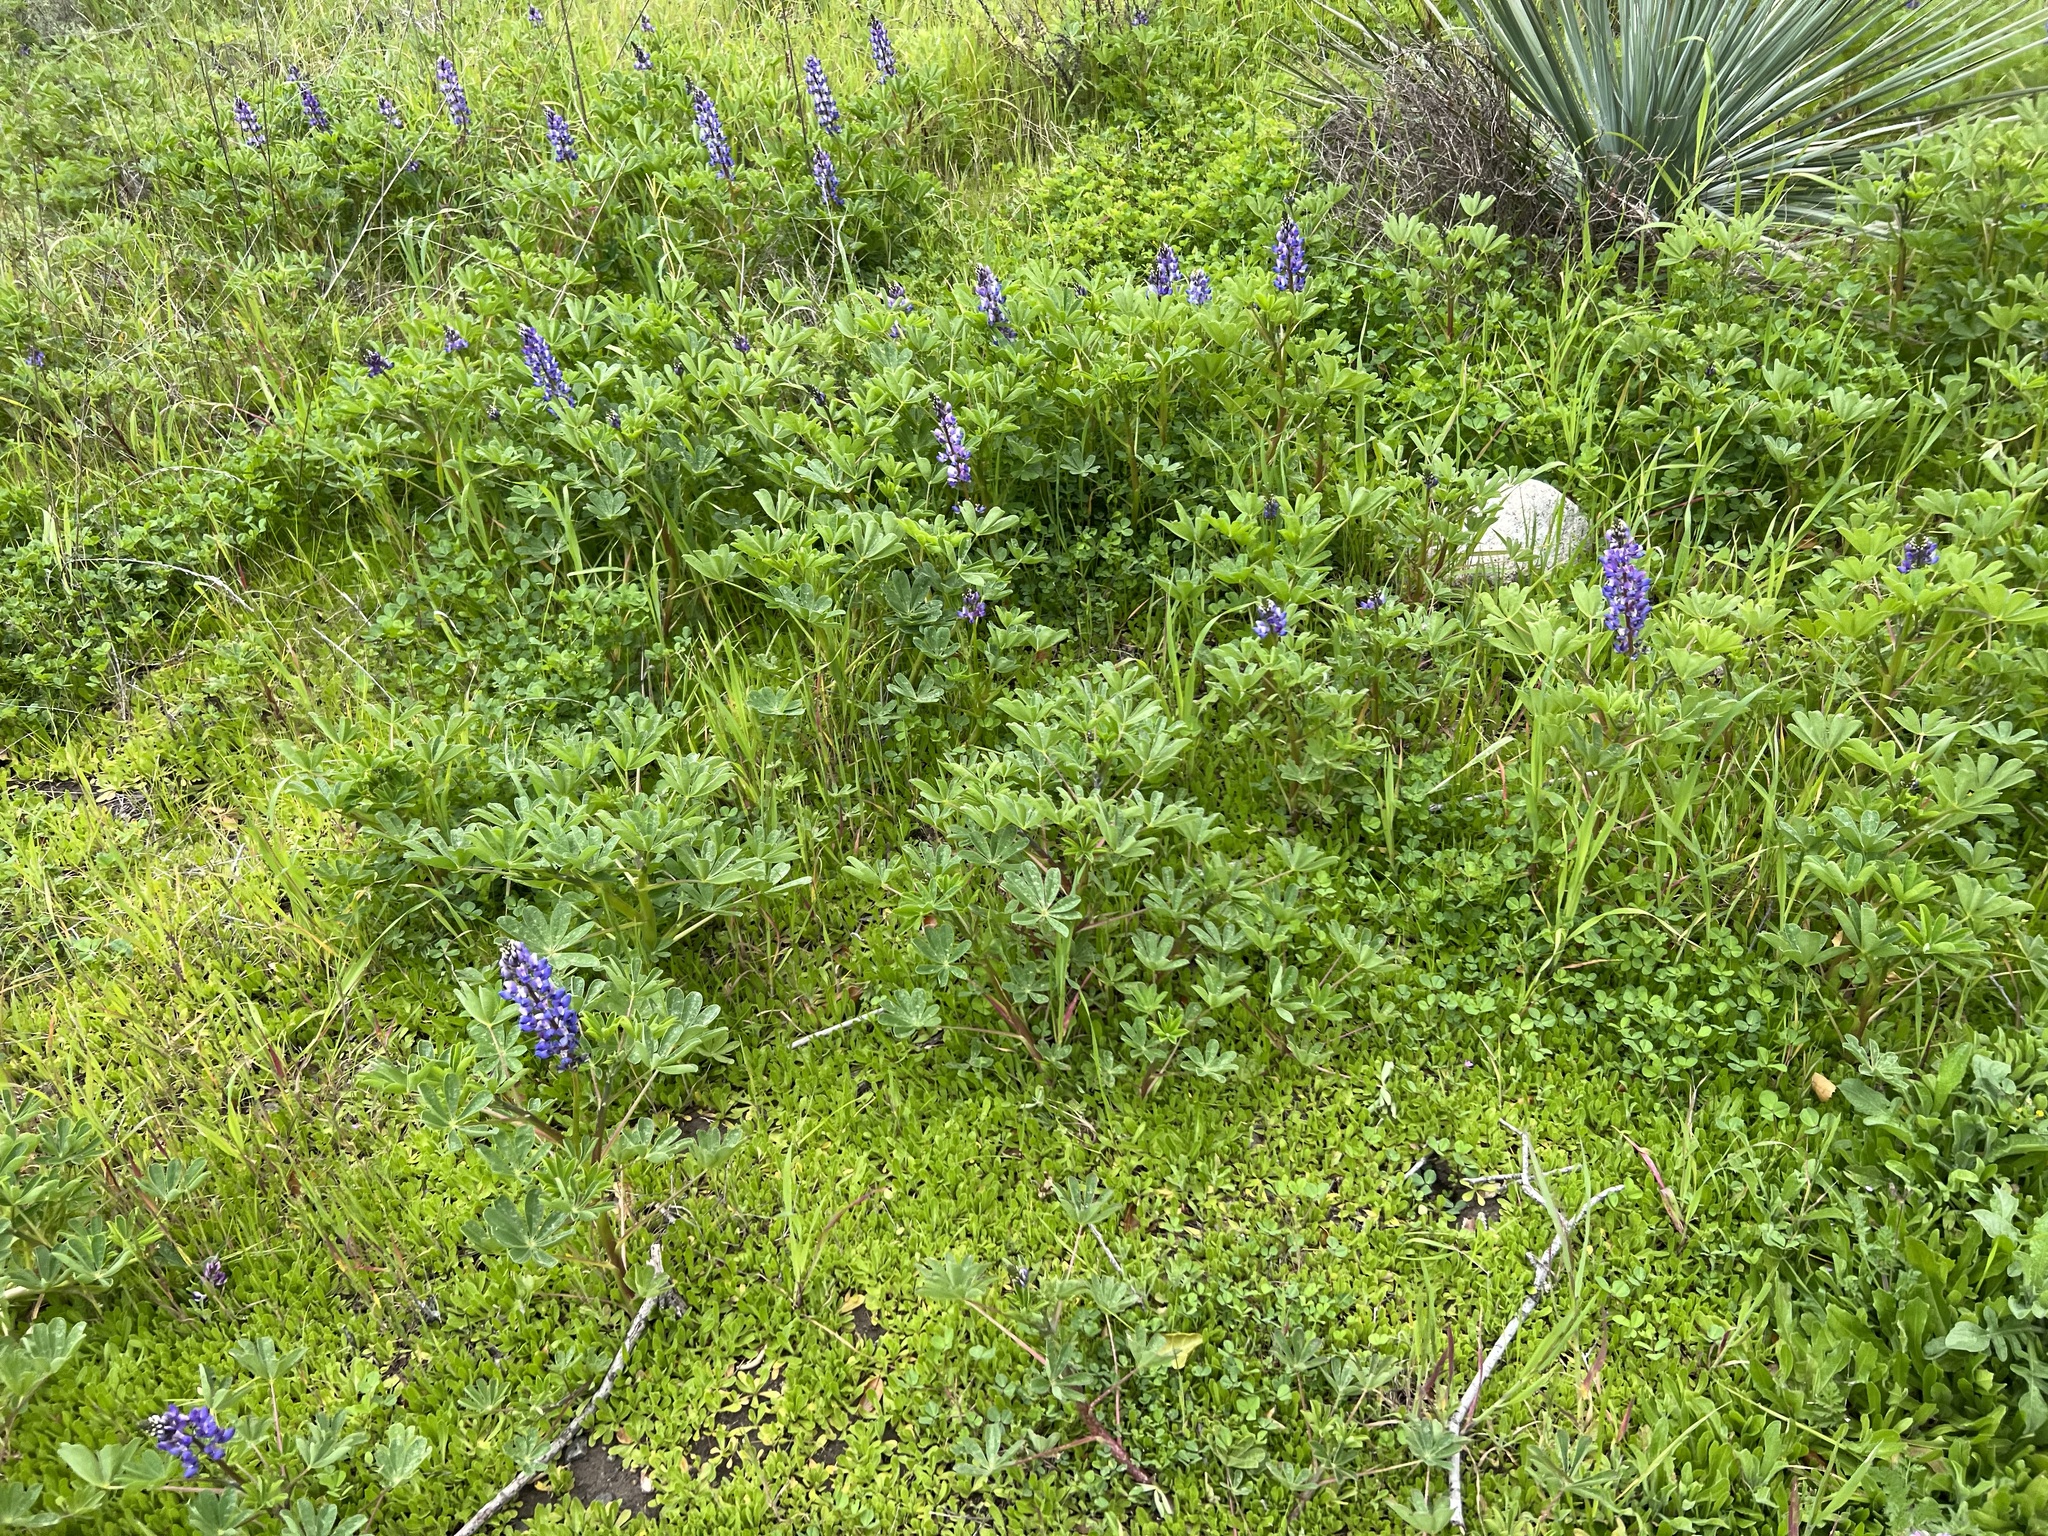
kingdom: Plantae
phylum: Tracheophyta
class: Magnoliopsida
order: Fabales
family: Fabaceae
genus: Lupinus
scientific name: Lupinus succulentus
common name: Arroyo lupine
